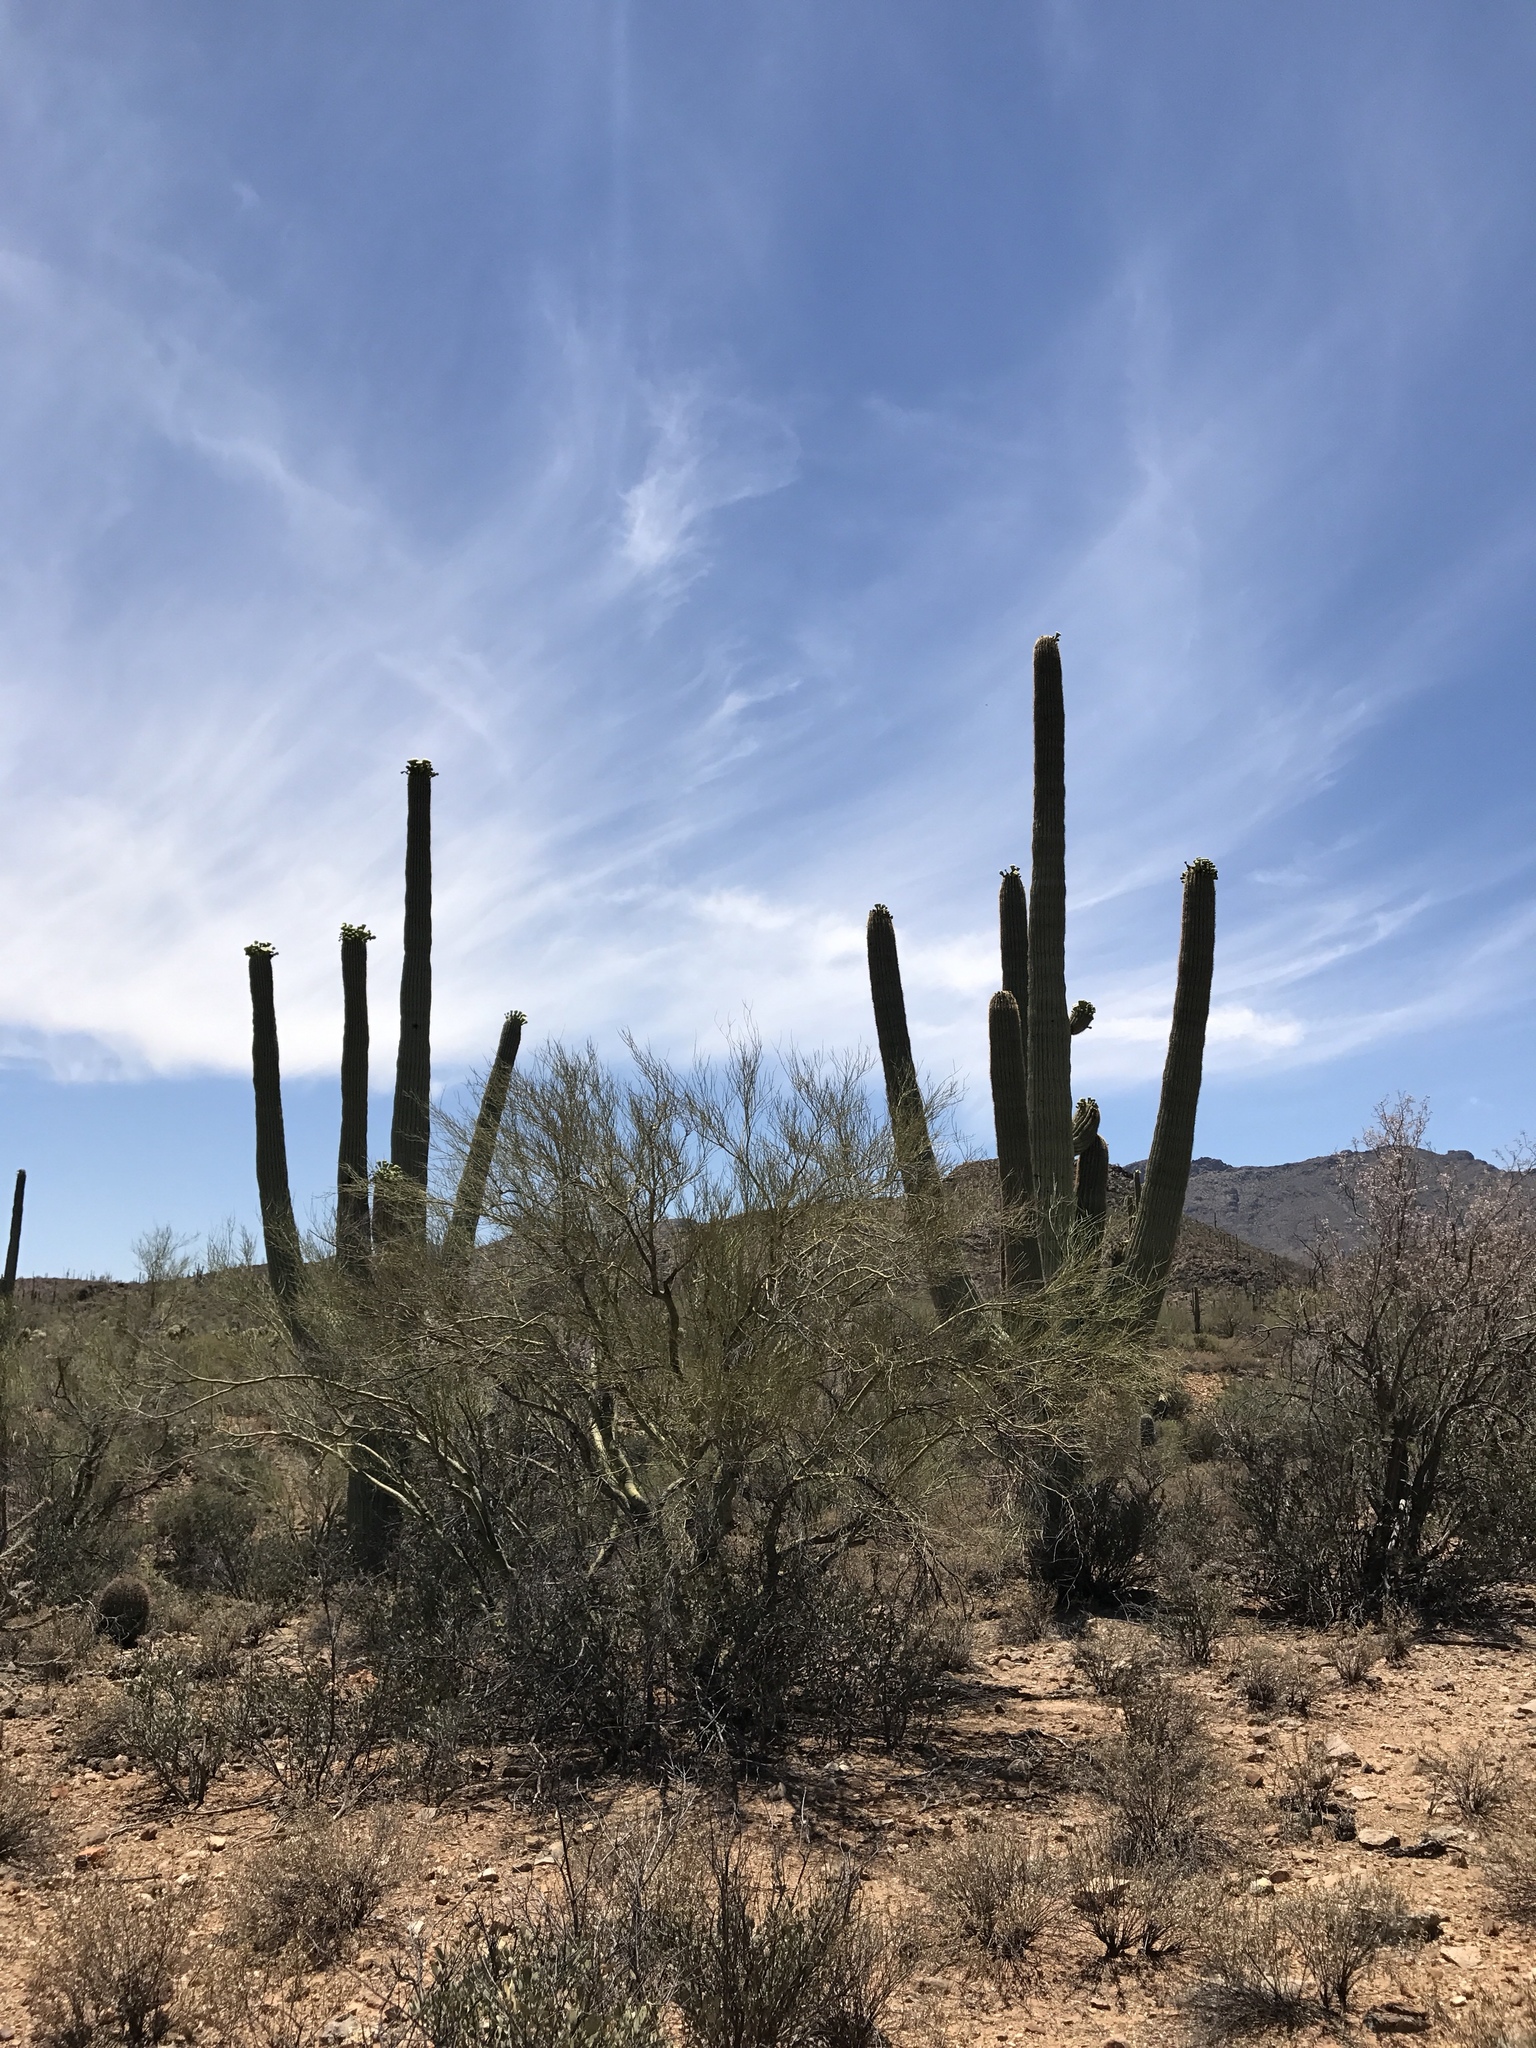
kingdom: Plantae
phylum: Tracheophyta
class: Magnoliopsida
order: Fabales
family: Fabaceae
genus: Olneya
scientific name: Olneya tesota
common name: Desert ironwood
